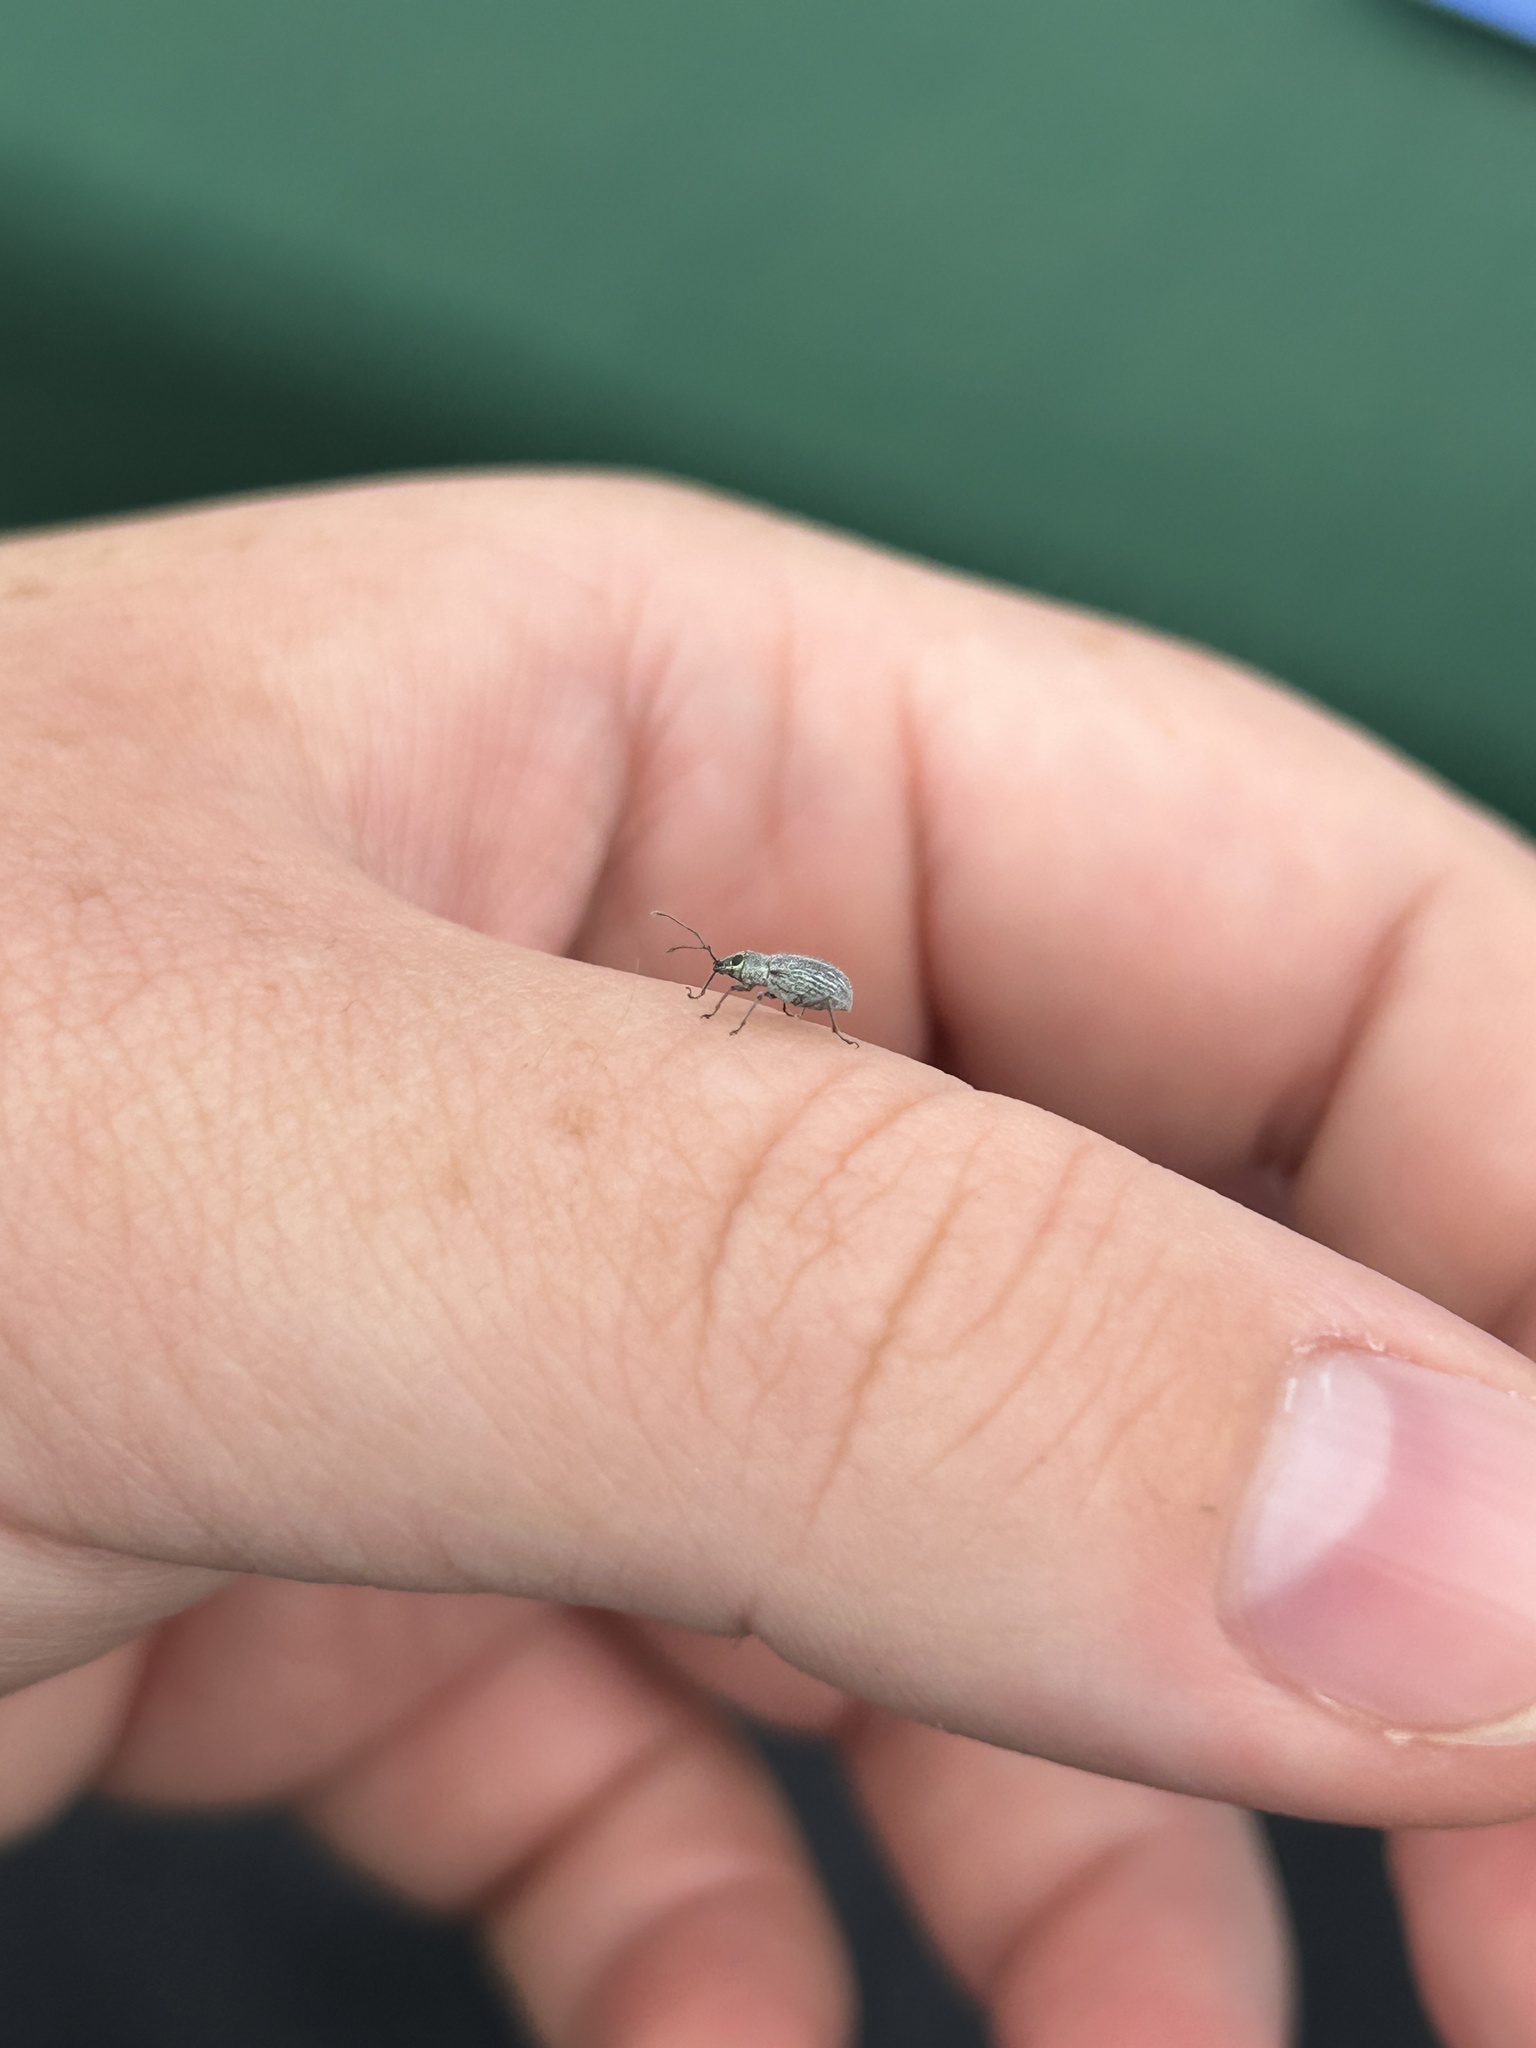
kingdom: Animalia
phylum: Arthropoda
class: Insecta
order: Coleoptera
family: Curculionidae
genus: Cyrtepistomus
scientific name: Cyrtepistomus castaneus
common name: Weevil
